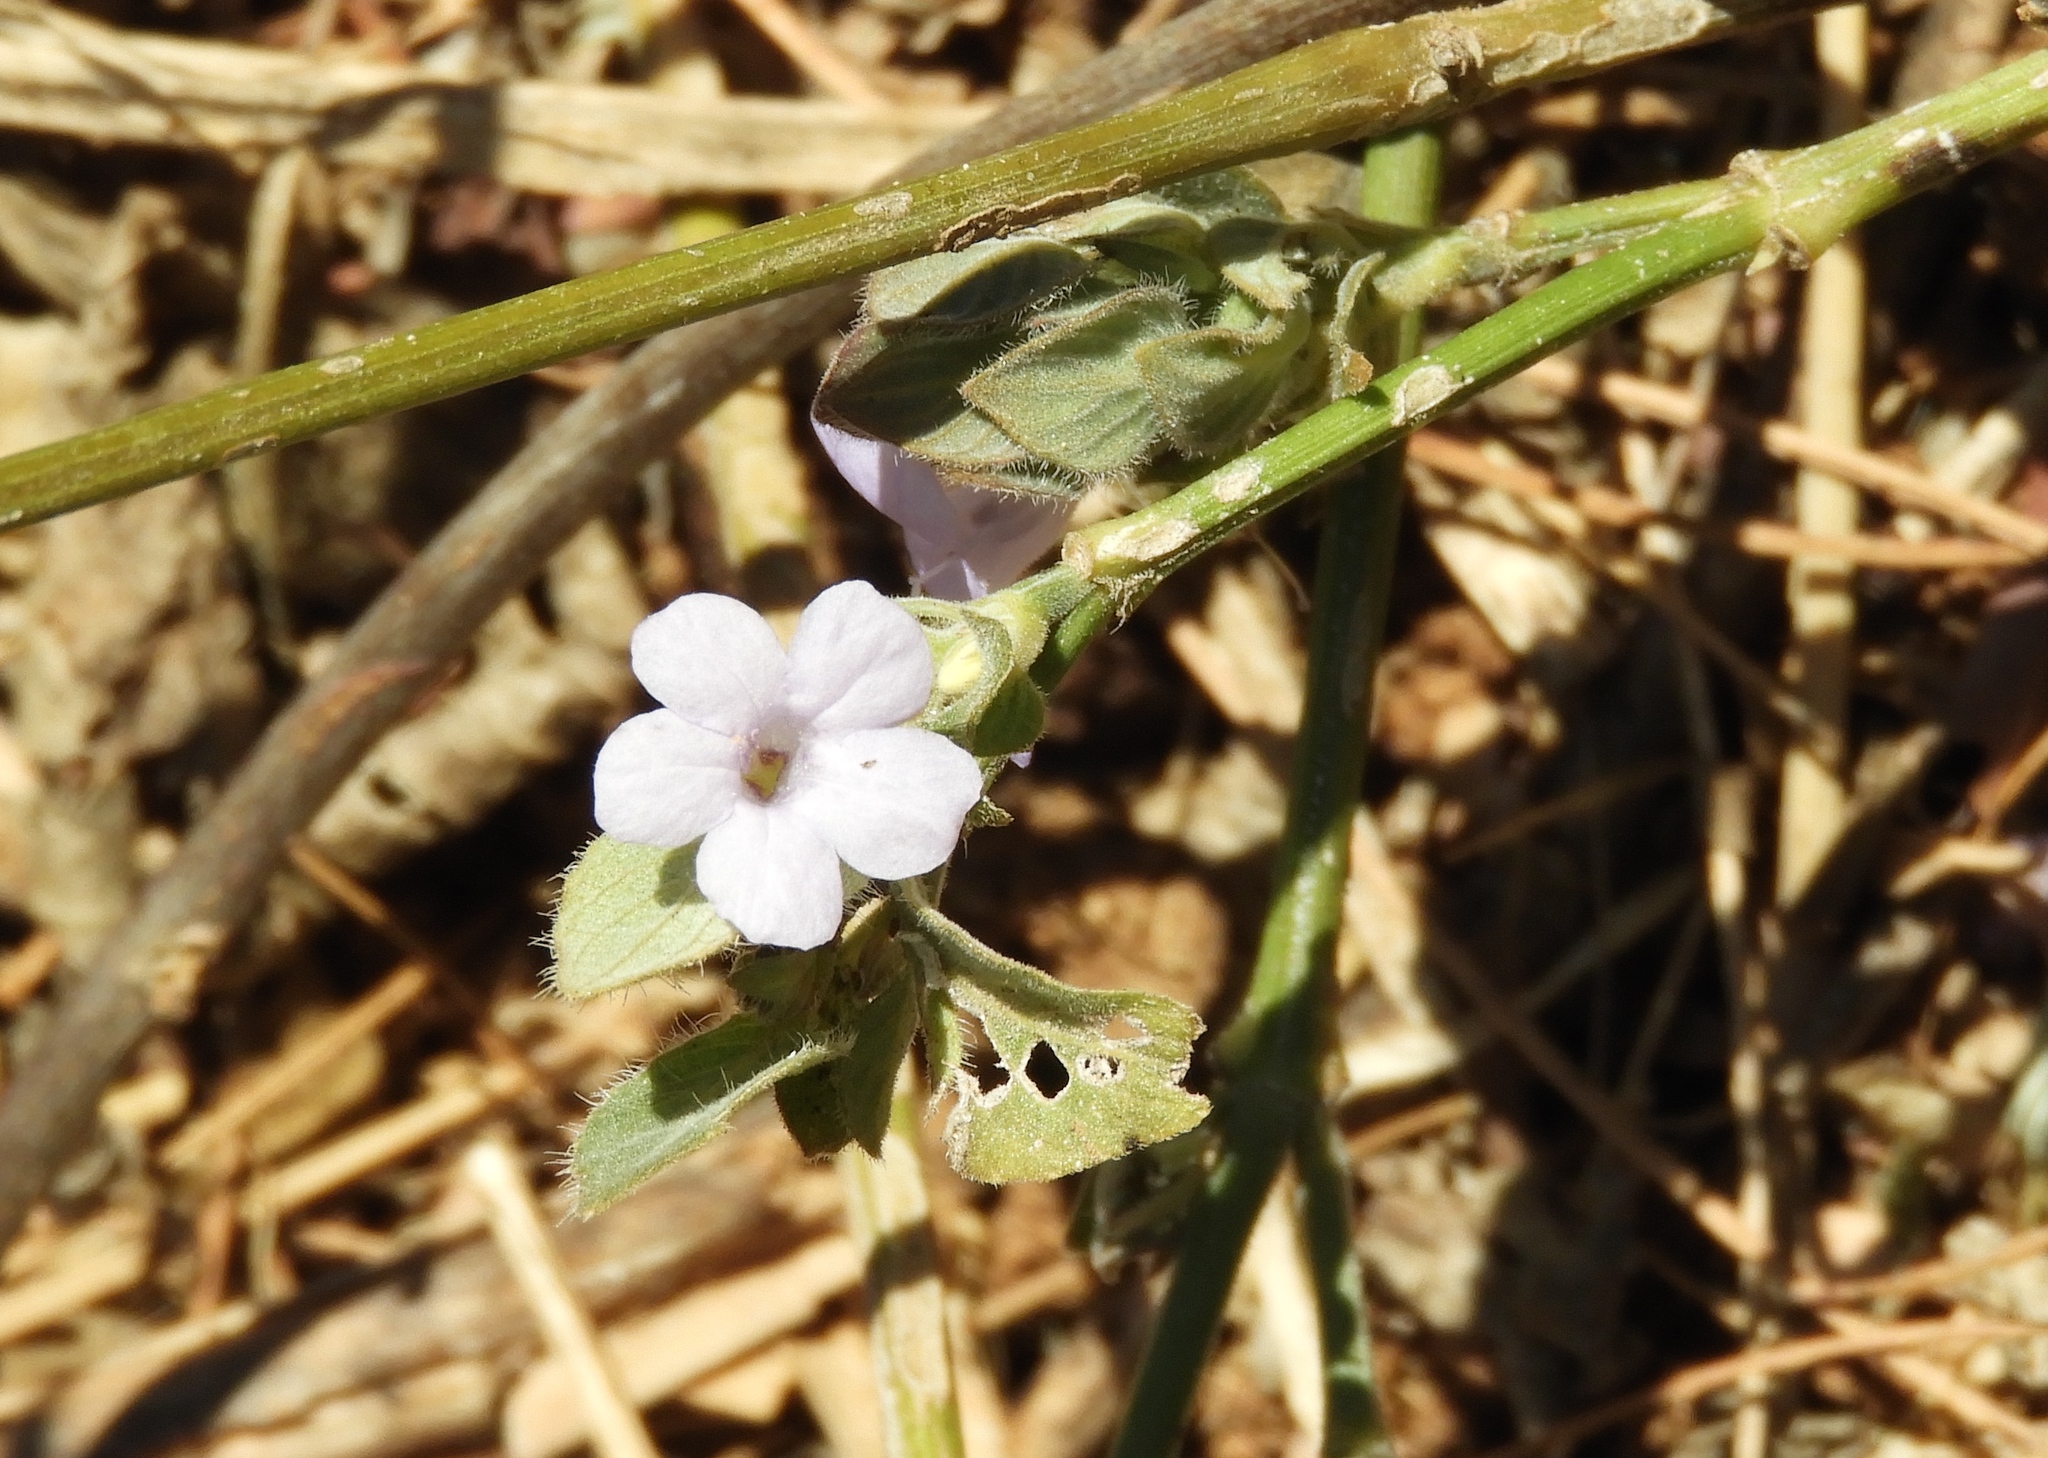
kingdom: Plantae
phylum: Tracheophyta
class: Magnoliopsida
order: Lamiales
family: Acanthaceae
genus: Ruellia
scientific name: Ruellia blechum
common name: Browne's blechum
